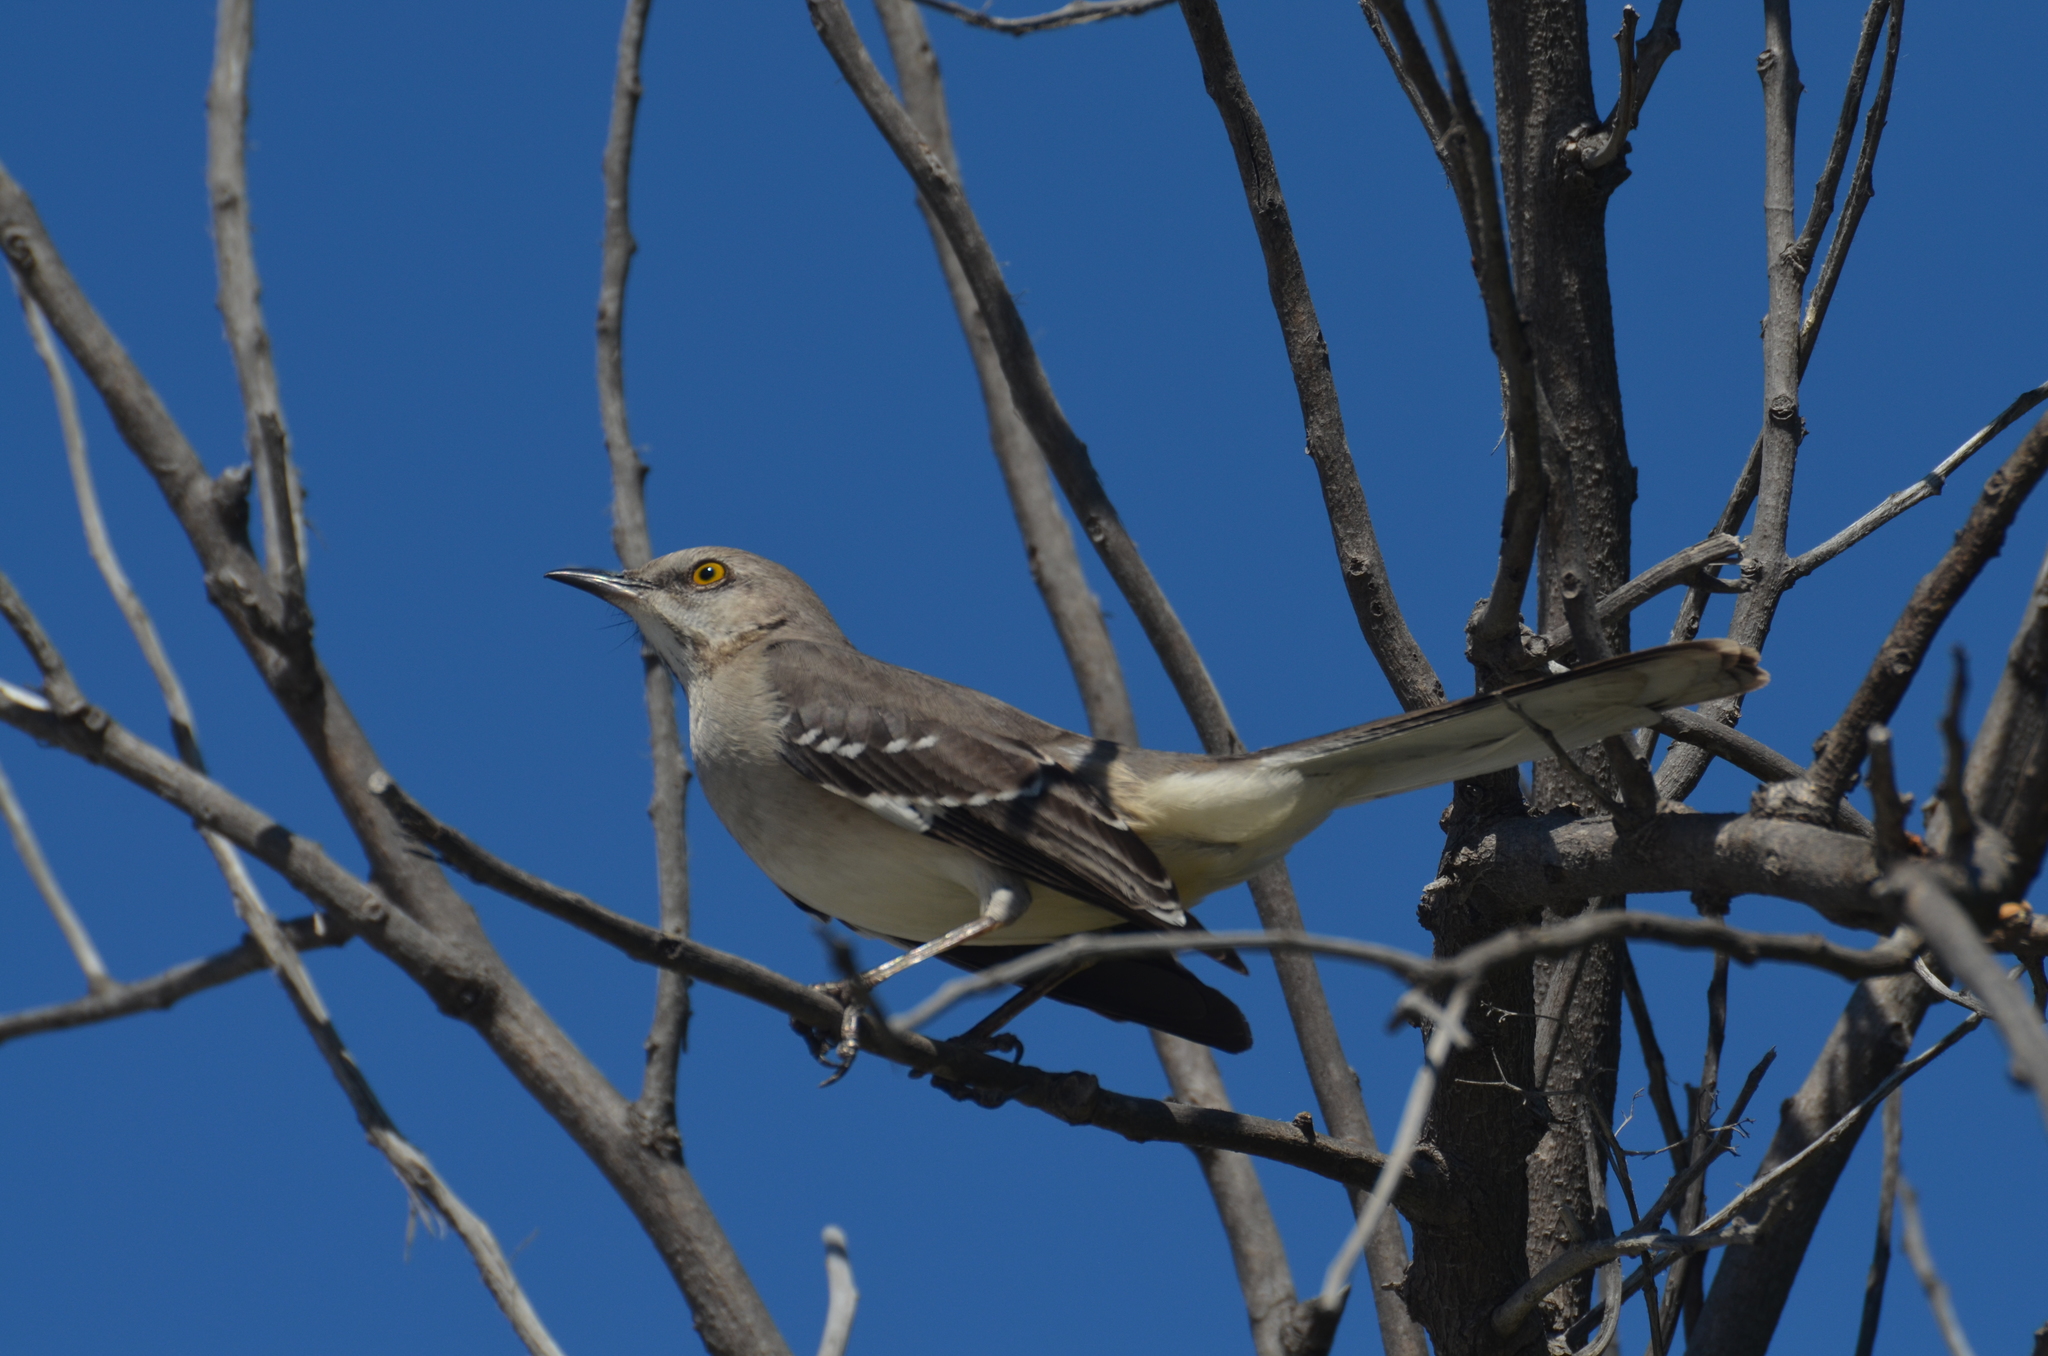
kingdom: Animalia
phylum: Chordata
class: Aves
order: Passeriformes
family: Mimidae
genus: Mimus
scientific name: Mimus polyglottos
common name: Northern mockingbird
